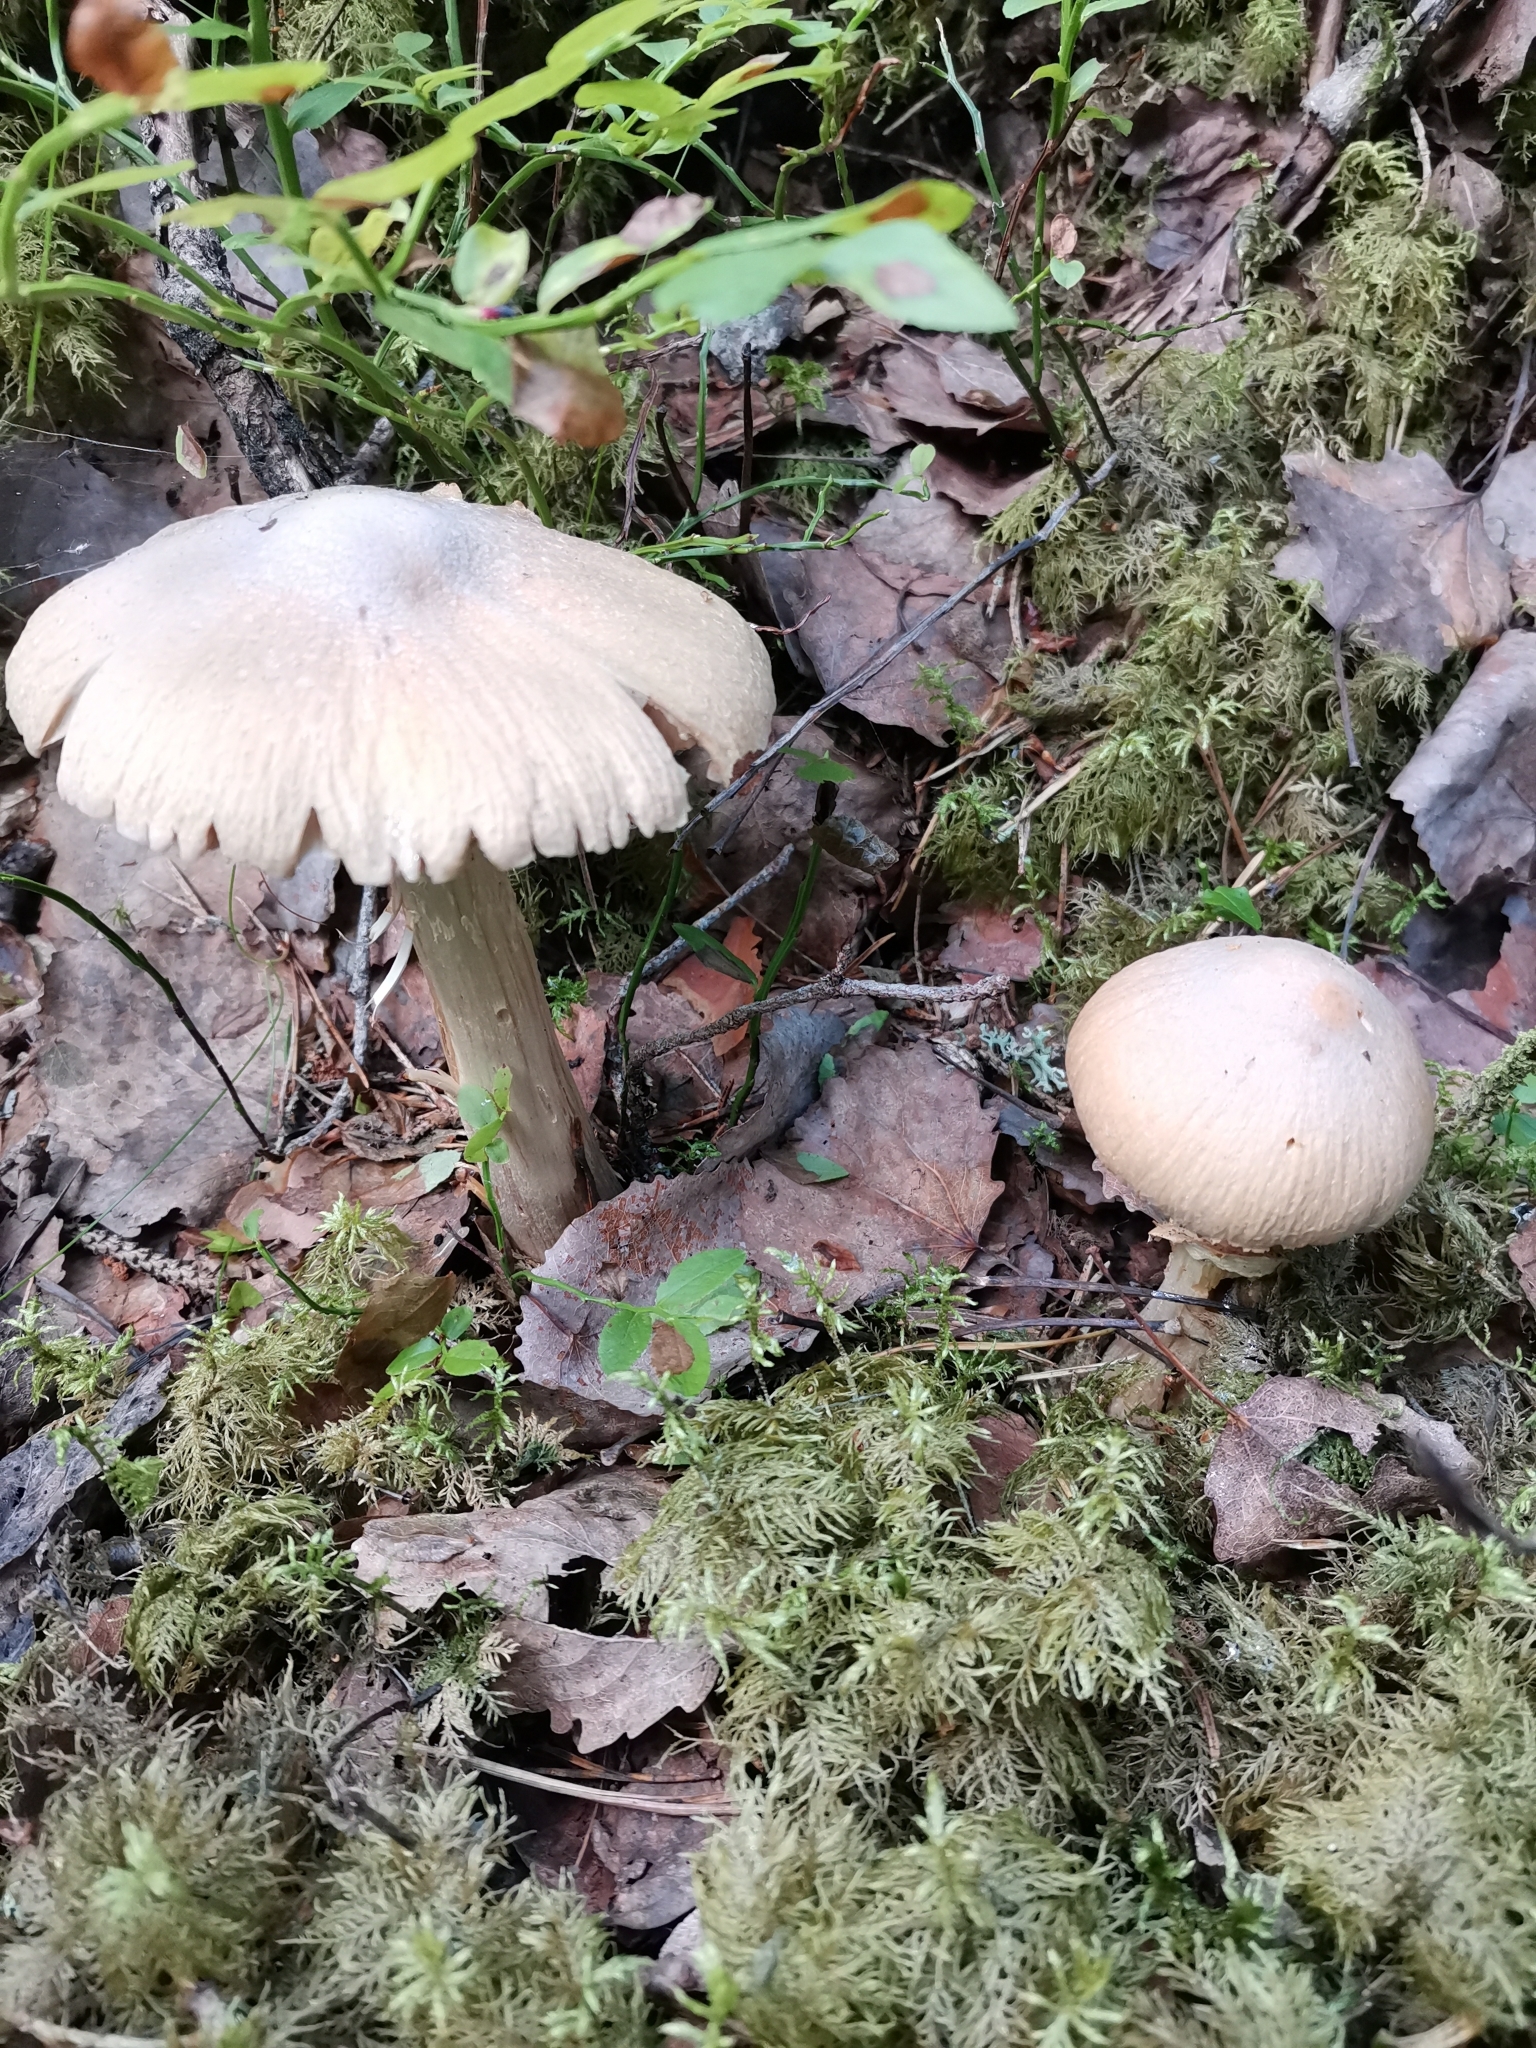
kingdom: Fungi
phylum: Basidiomycota
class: Agaricomycetes
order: Agaricales
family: Cortinariaceae
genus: Cortinarius
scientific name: Cortinarius caperatus
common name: The gypsy
